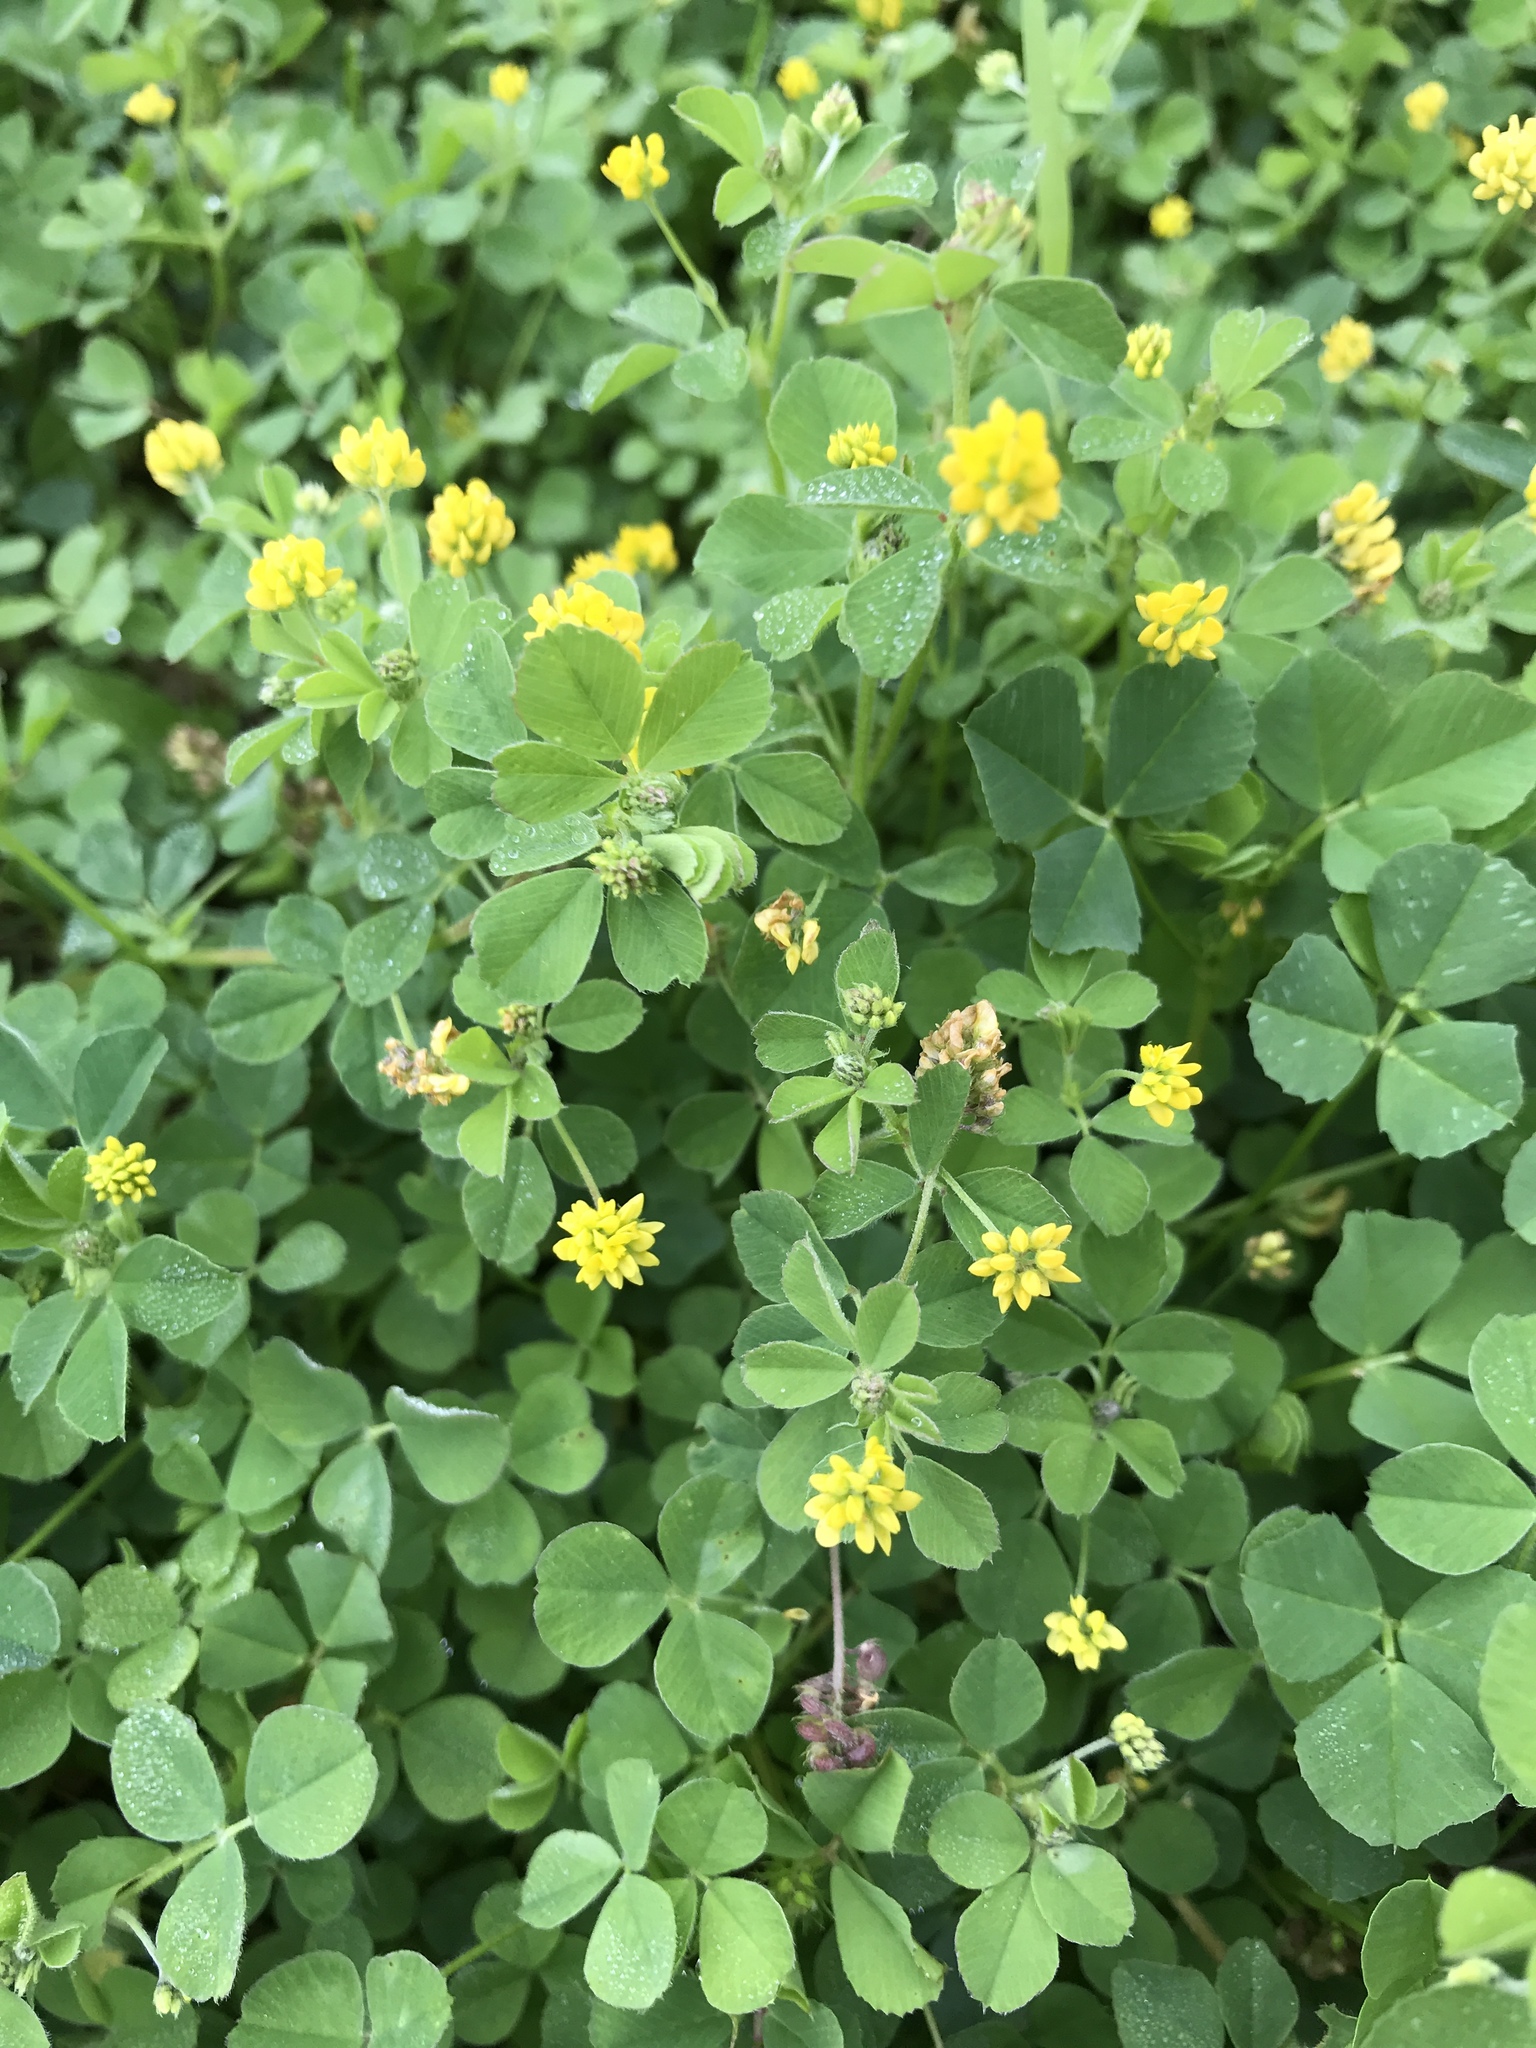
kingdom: Plantae
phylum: Tracheophyta
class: Magnoliopsida
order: Fabales
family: Fabaceae
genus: Medicago
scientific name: Medicago lupulina
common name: Black medick
